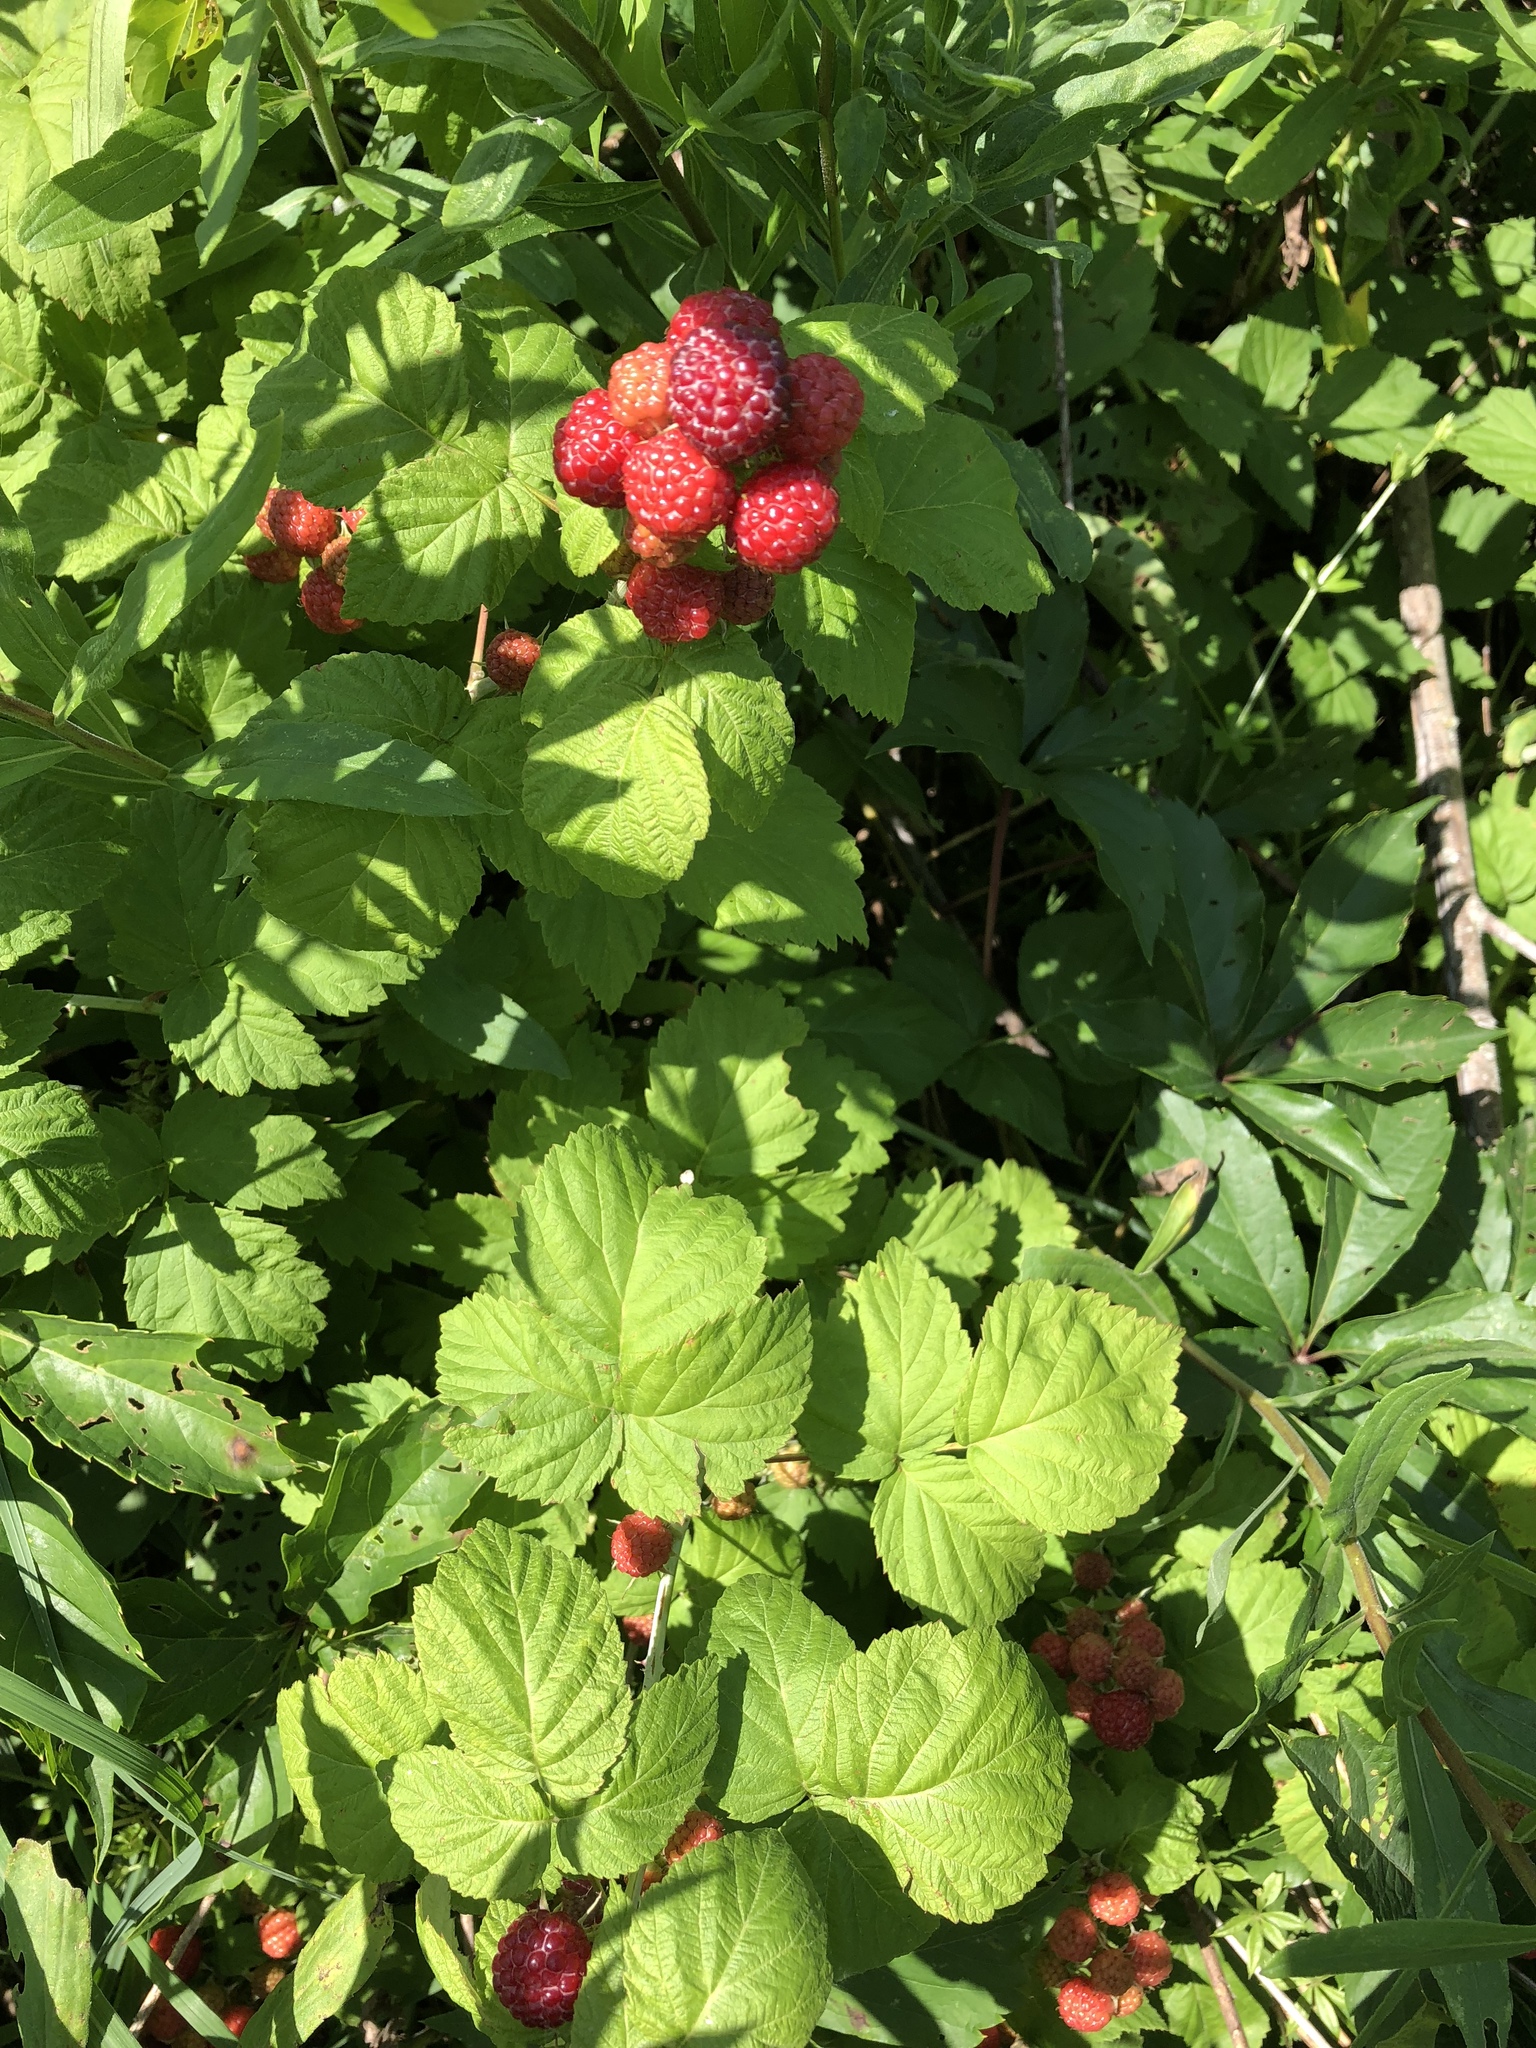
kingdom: Plantae
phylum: Tracheophyta
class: Magnoliopsida
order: Rosales
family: Rosaceae
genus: Rubus
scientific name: Rubus occidentalis
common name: Black raspberry
